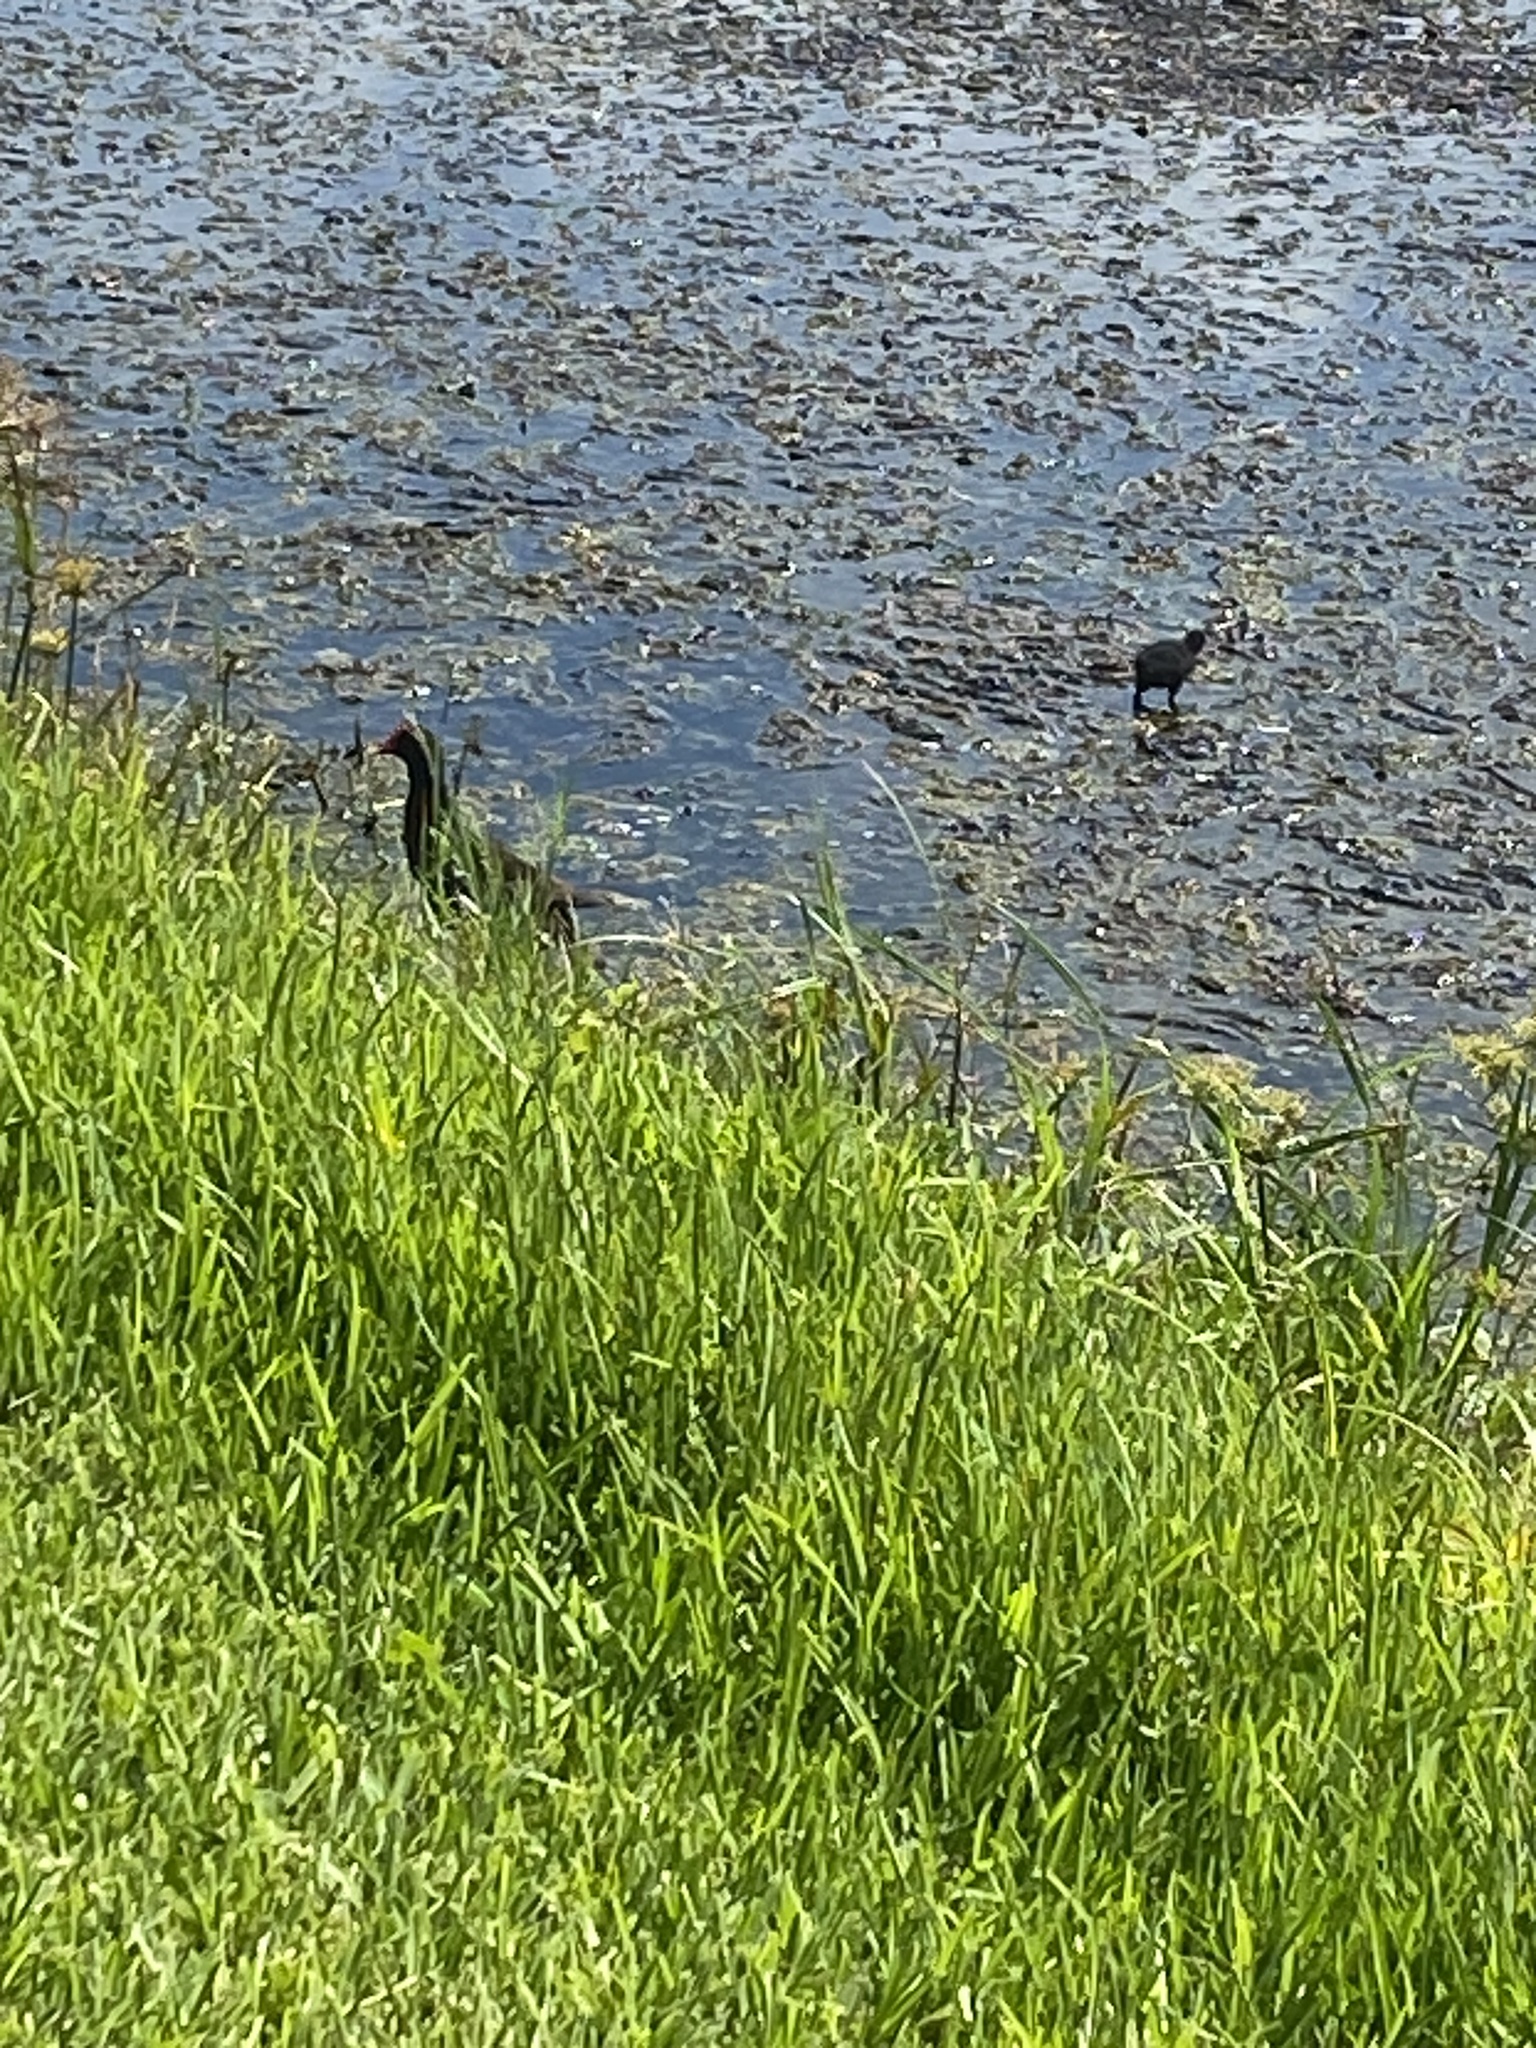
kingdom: Animalia
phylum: Chordata
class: Aves
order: Gruiformes
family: Rallidae
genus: Gallinula
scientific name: Gallinula chloropus
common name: Common moorhen
